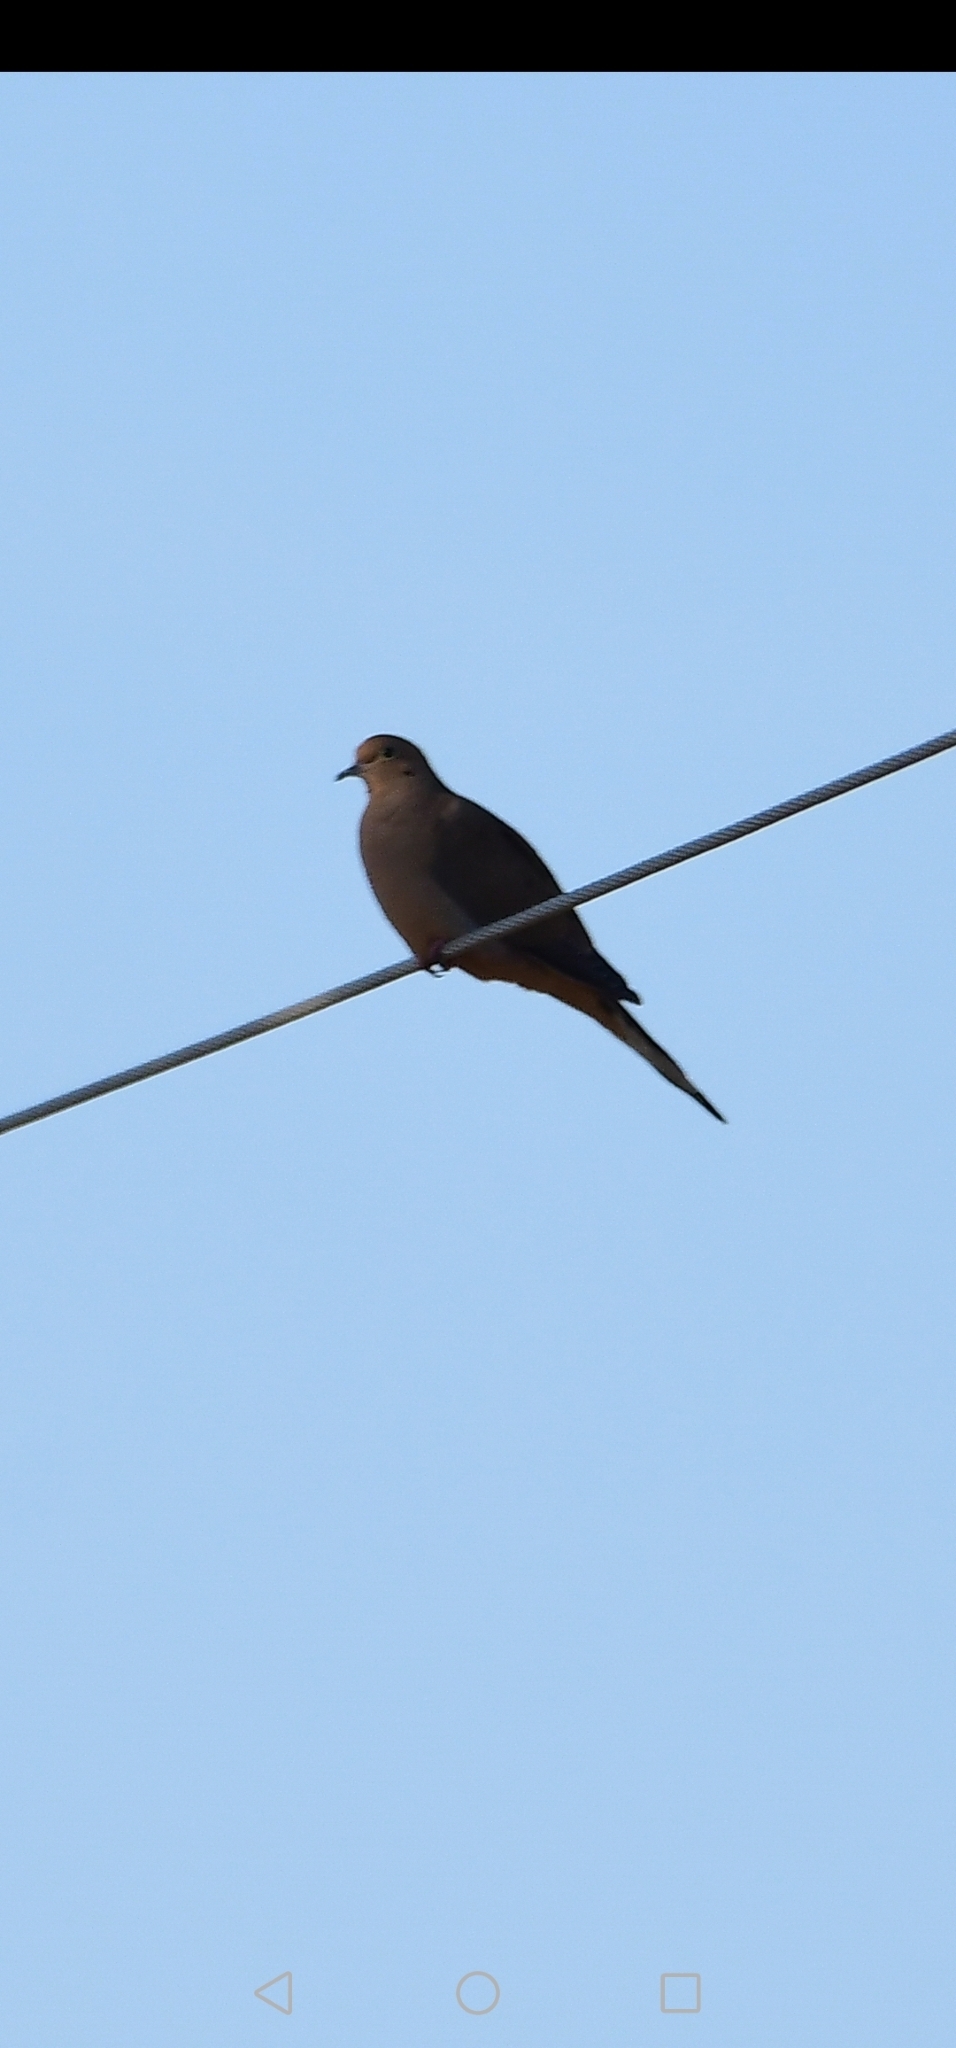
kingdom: Animalia
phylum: Chordata
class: Aves
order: Columbiformes
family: Columbidae
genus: Zenaida
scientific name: Zenaida macroura
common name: Mourning dove
